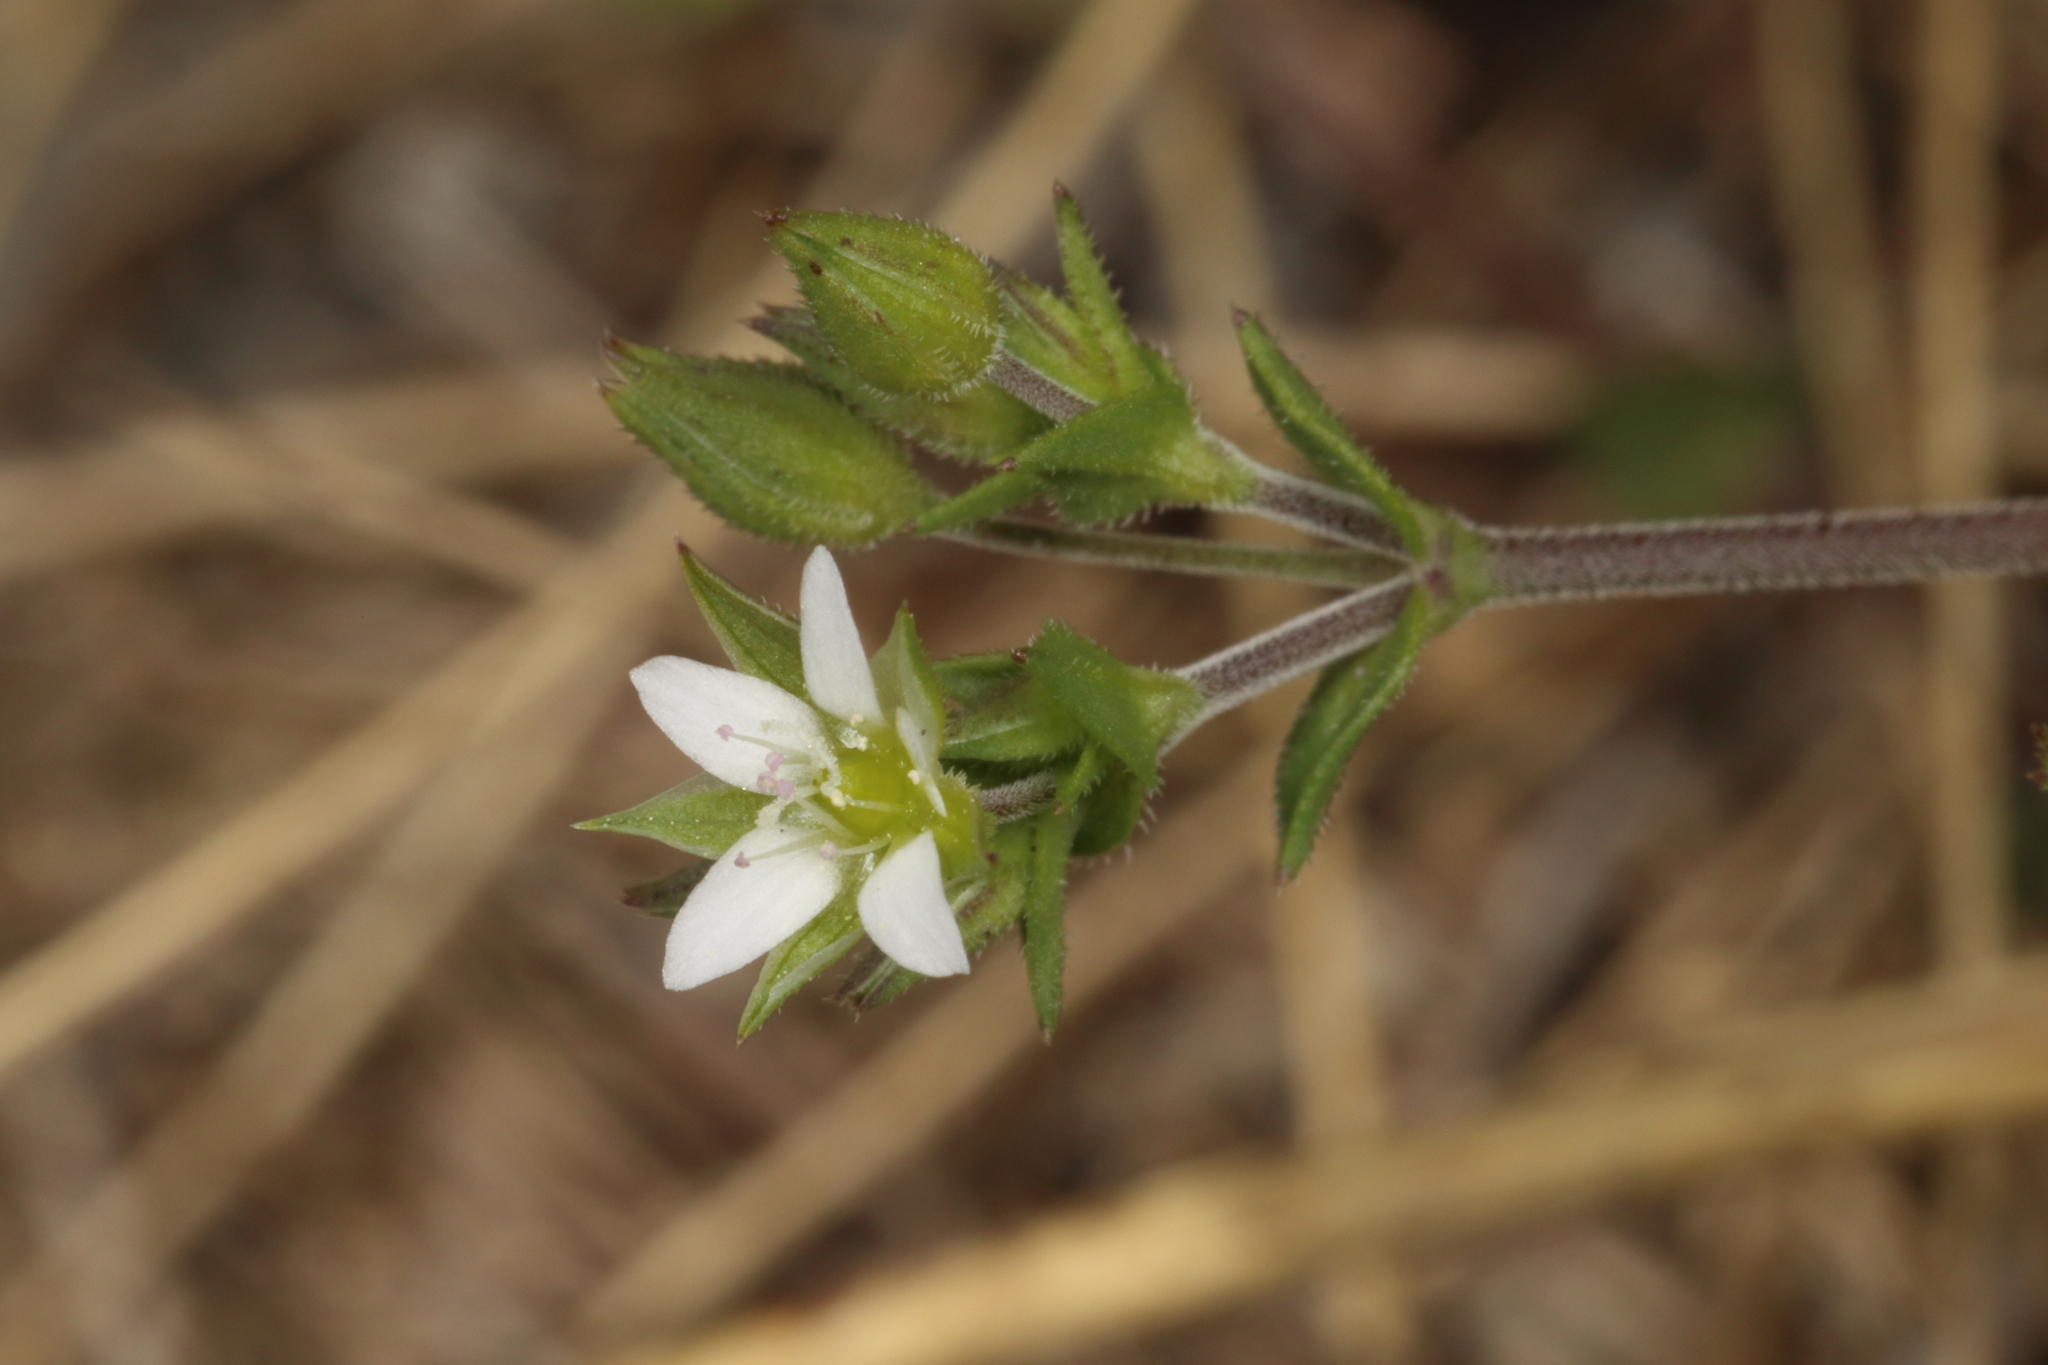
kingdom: Plantae
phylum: Tracheophyta
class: Magnoliopsida
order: Caryophyllales
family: Caryophyllaceae
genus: Arenaria
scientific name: Arenaria serpyllifolia
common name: Thyme-leaved sandwort
